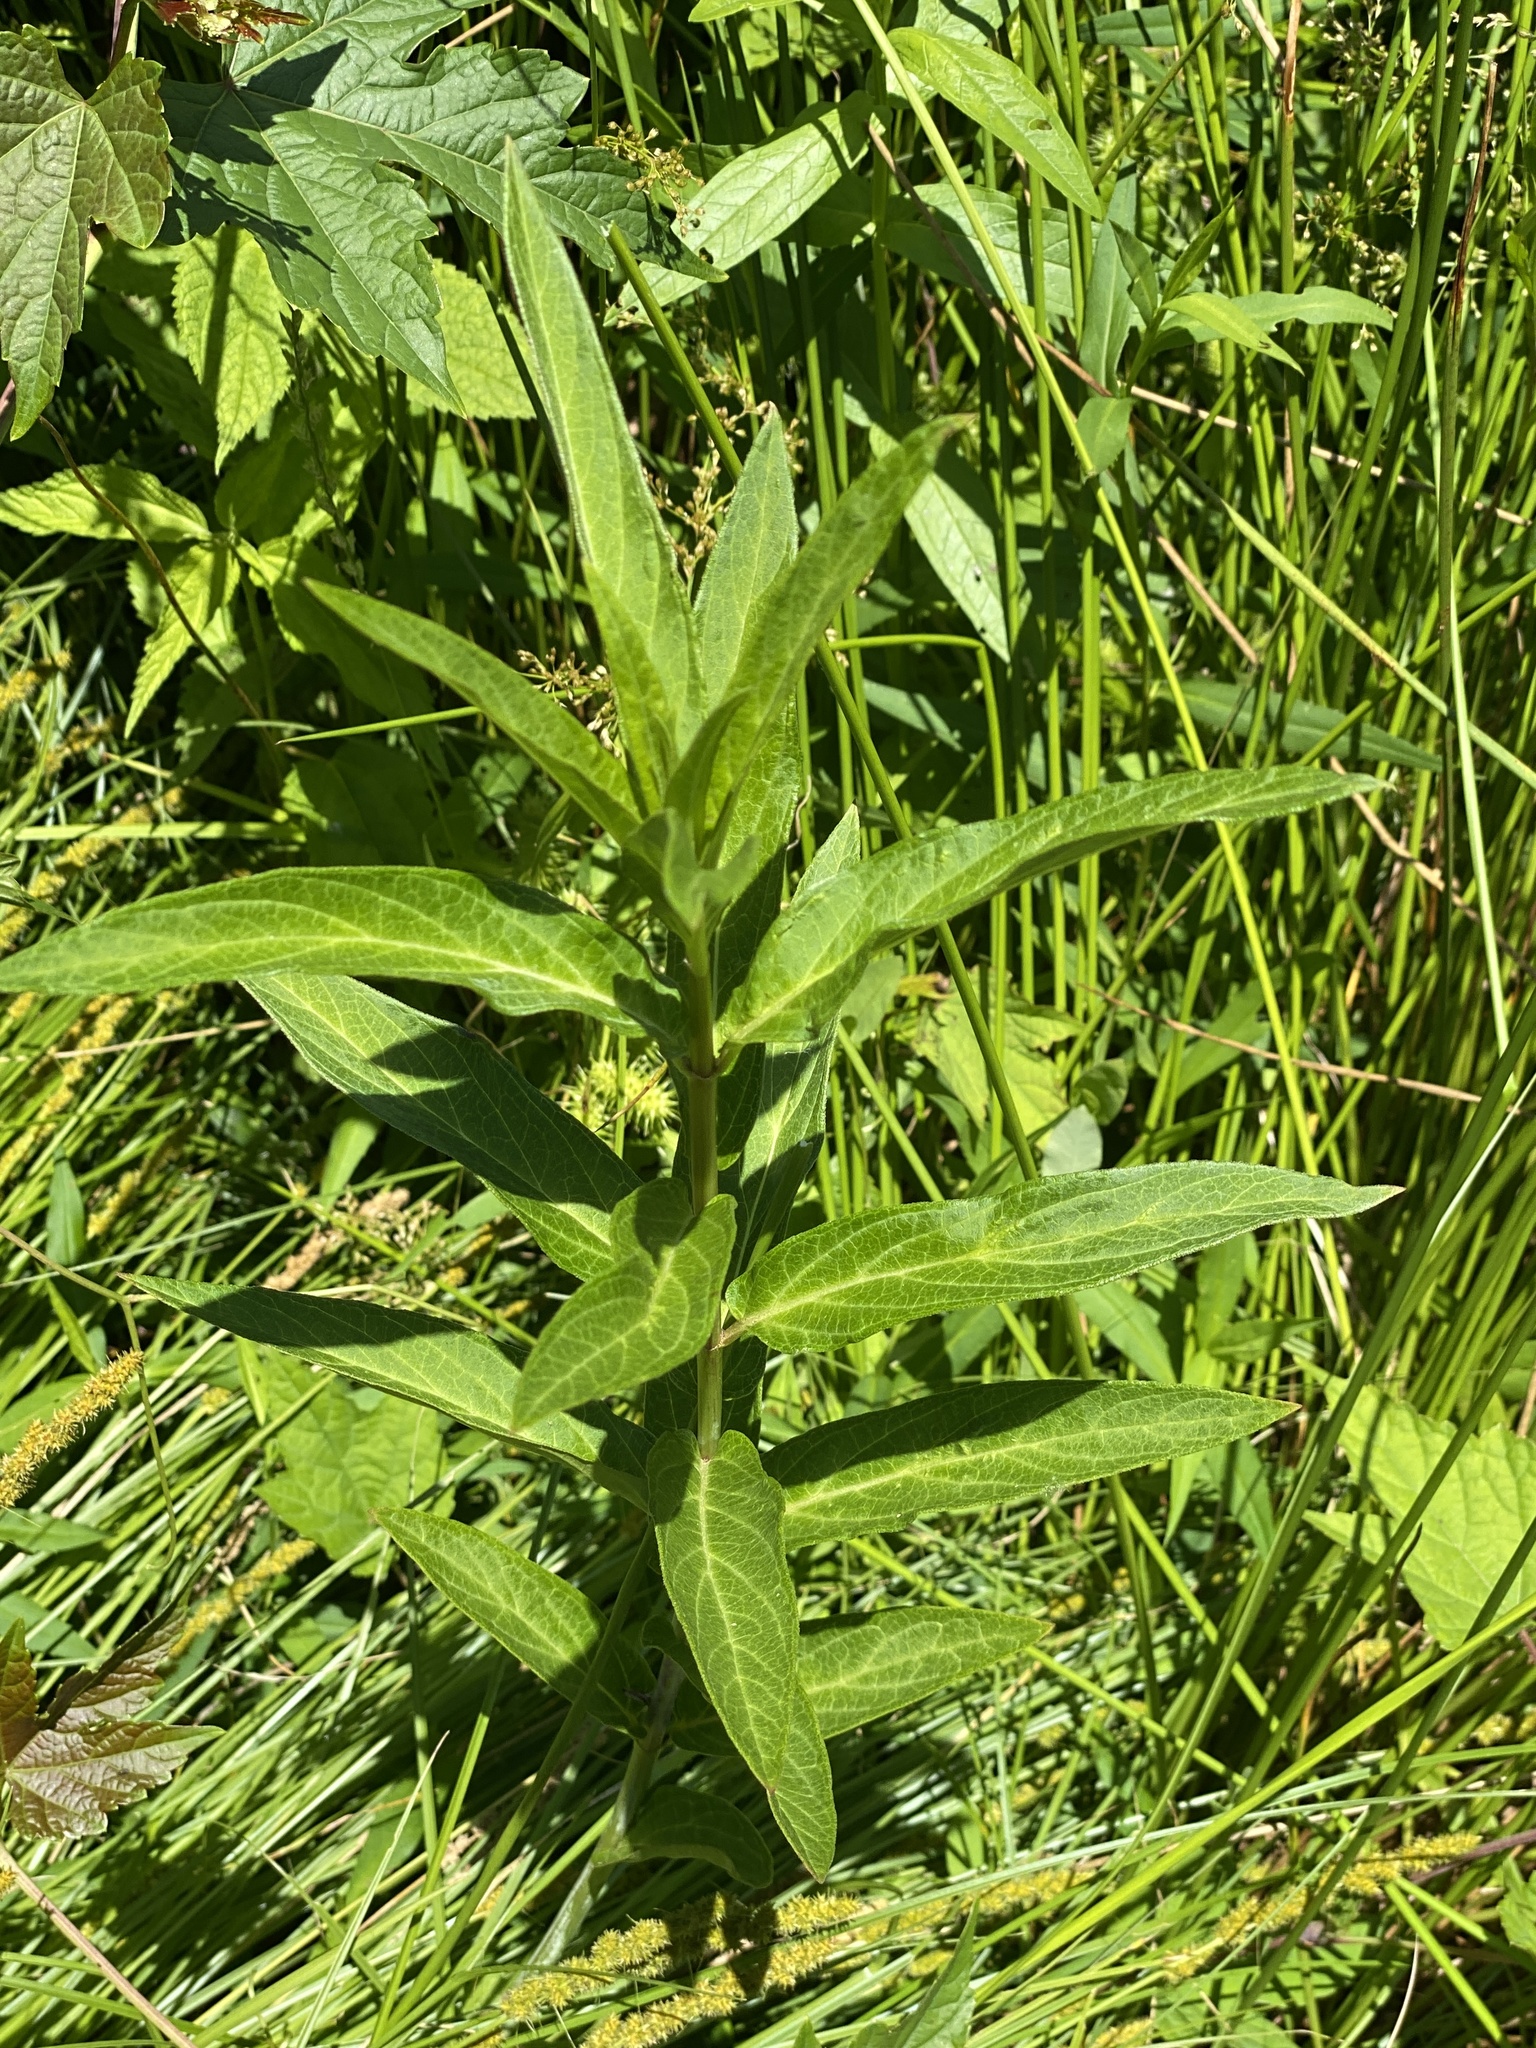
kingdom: Plantae
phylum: Tracheophyta
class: Magnoliopsida
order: Gentianales
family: Apocynaceae
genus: Asclepias
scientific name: Asclepias incarnata
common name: Swamp milkweed
